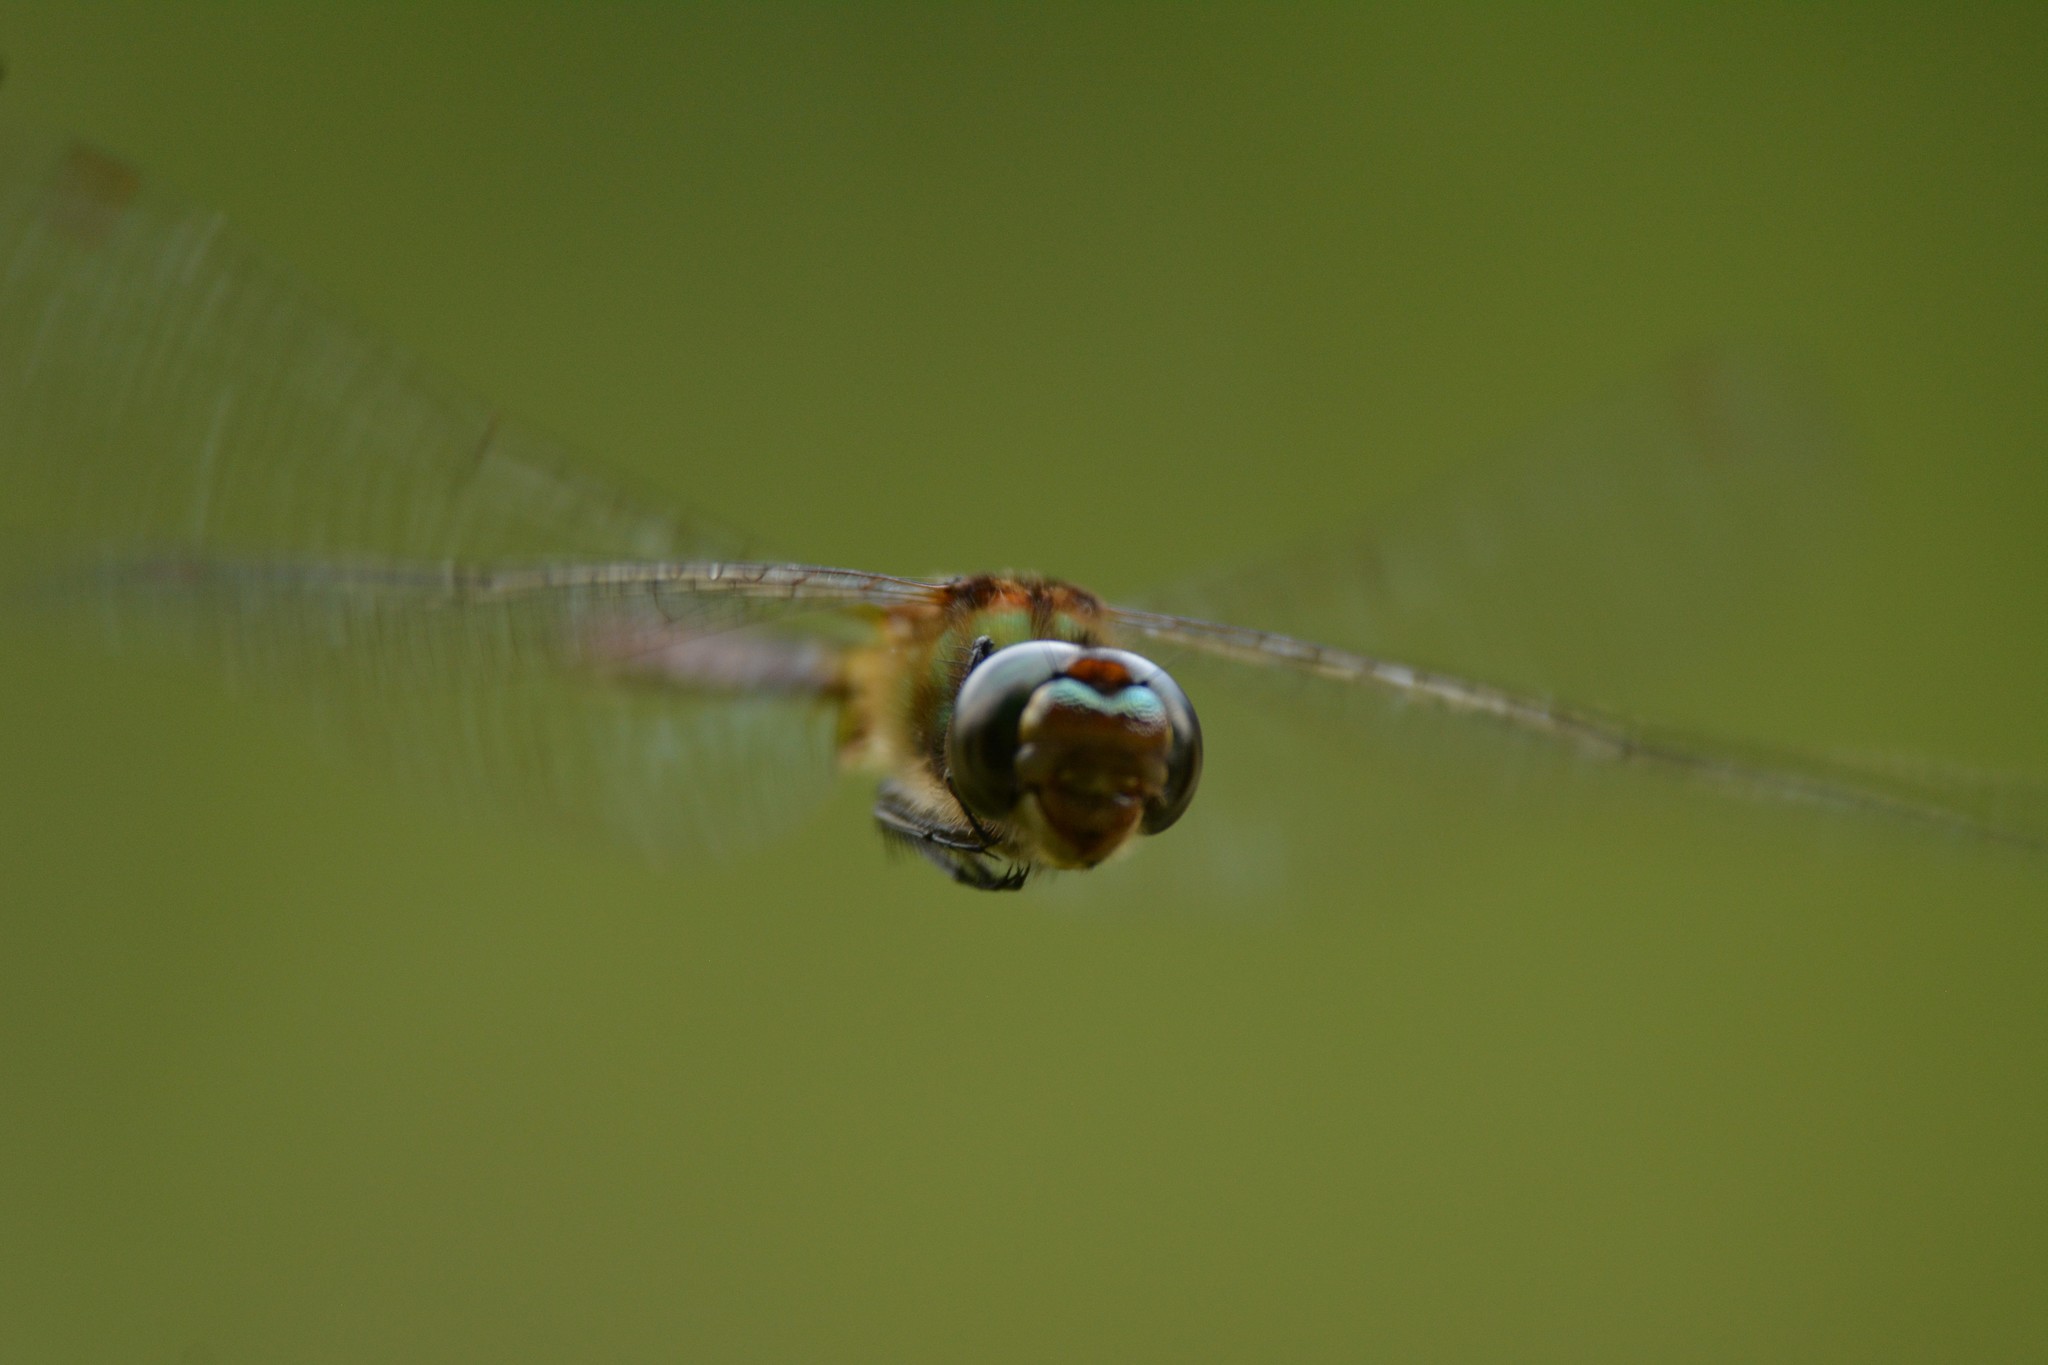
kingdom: Animalia
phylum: Arthropoda
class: Insecta
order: Odonata
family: Corduliidae
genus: Procordulia
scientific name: Procordulia smithii
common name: Ranger dragonfly
